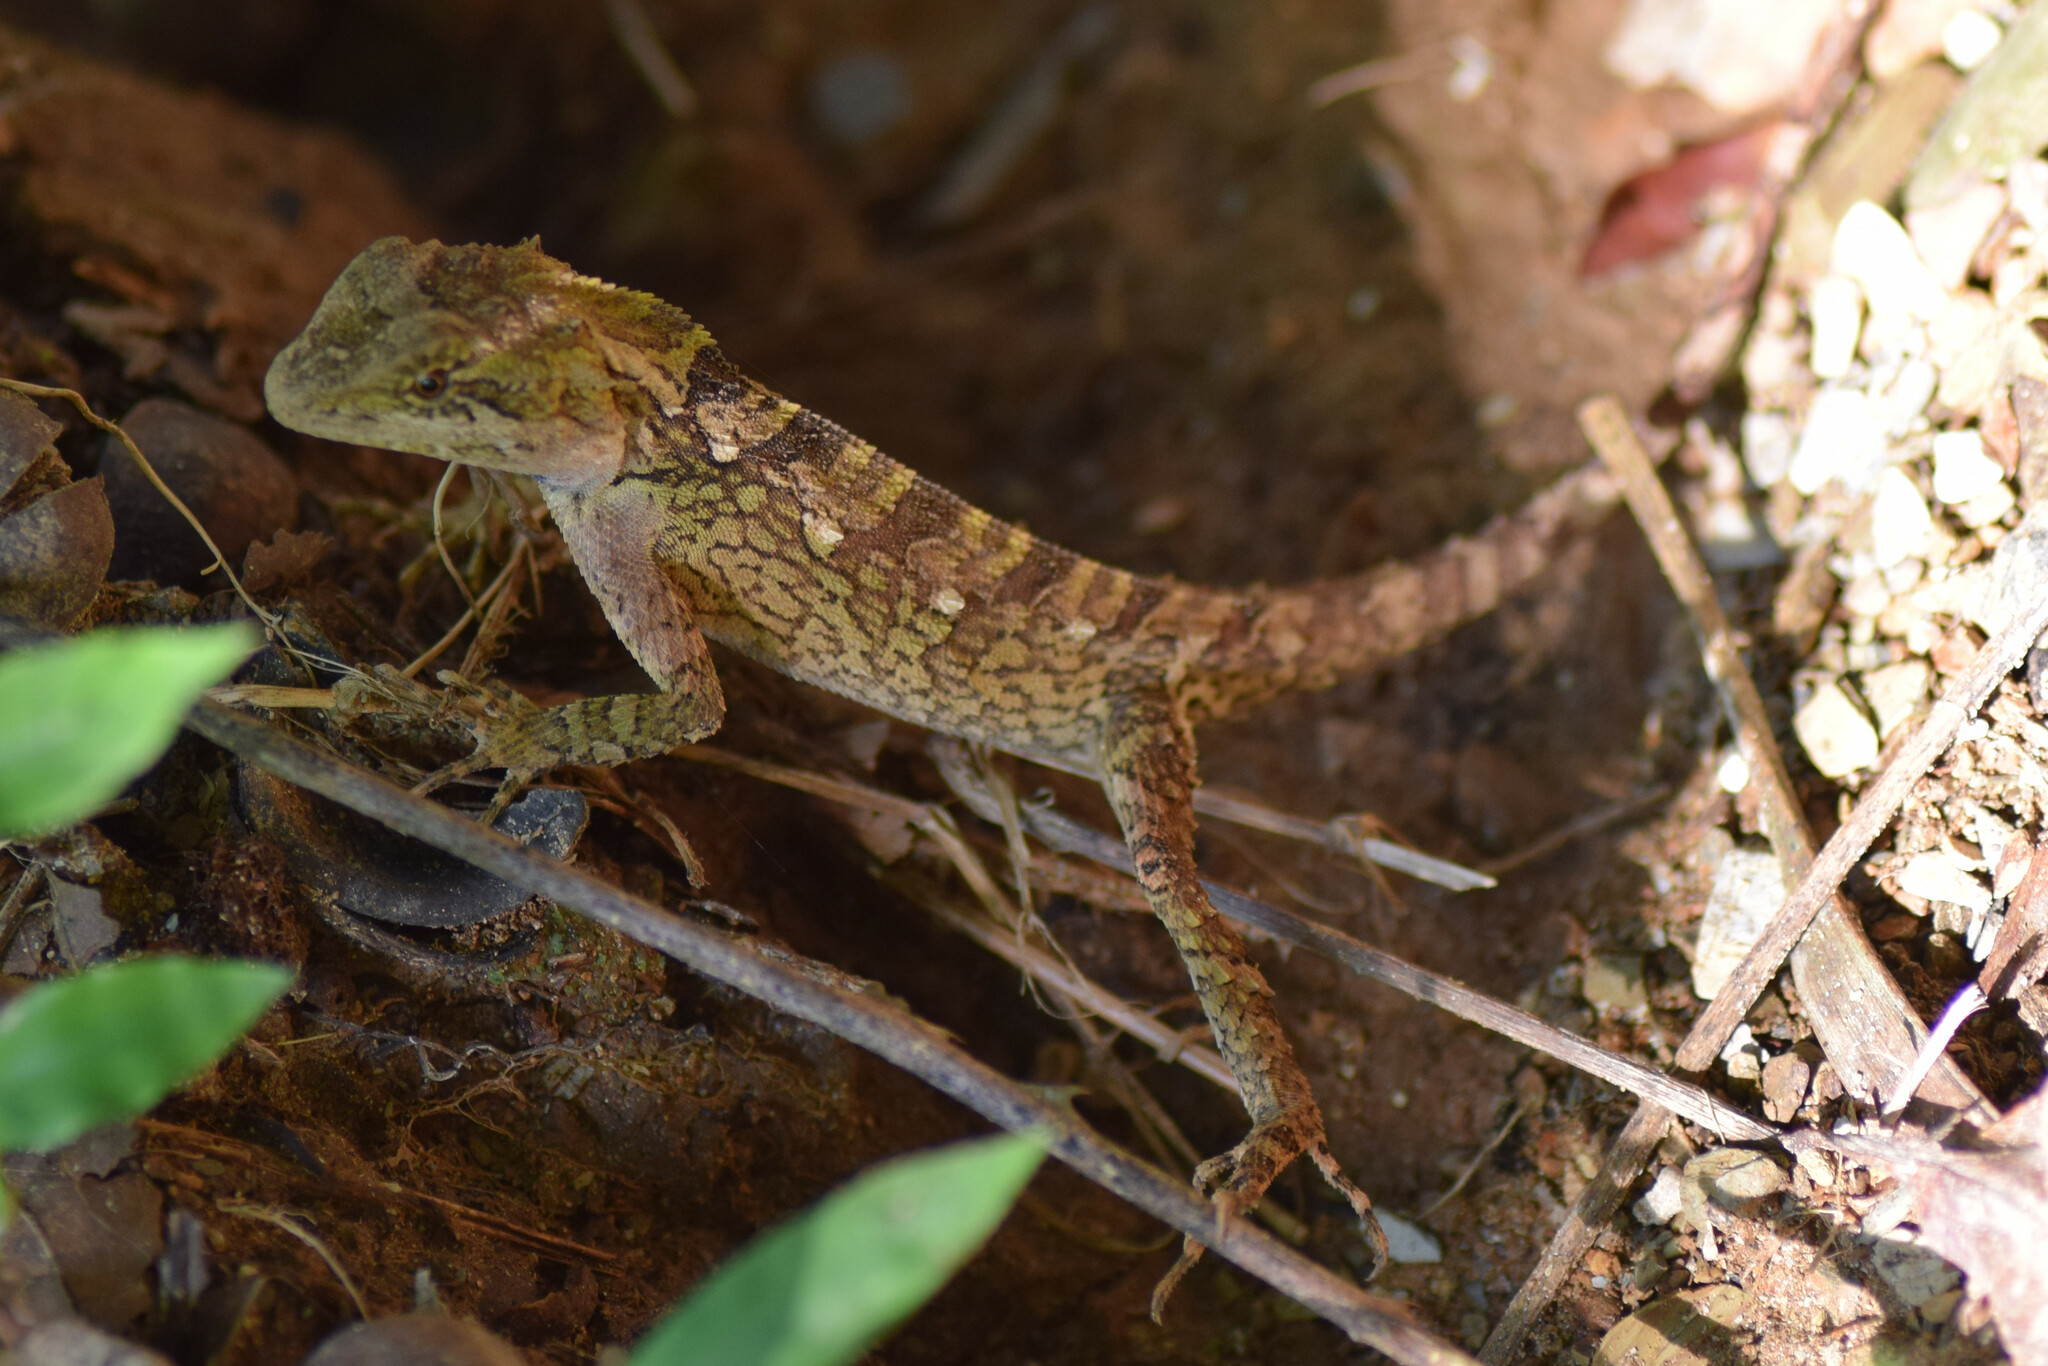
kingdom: Animalia
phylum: Chordata
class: Squamata
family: Agamidae
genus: Japalura
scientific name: Japalura variegata
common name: East himalayan mountain lizard
